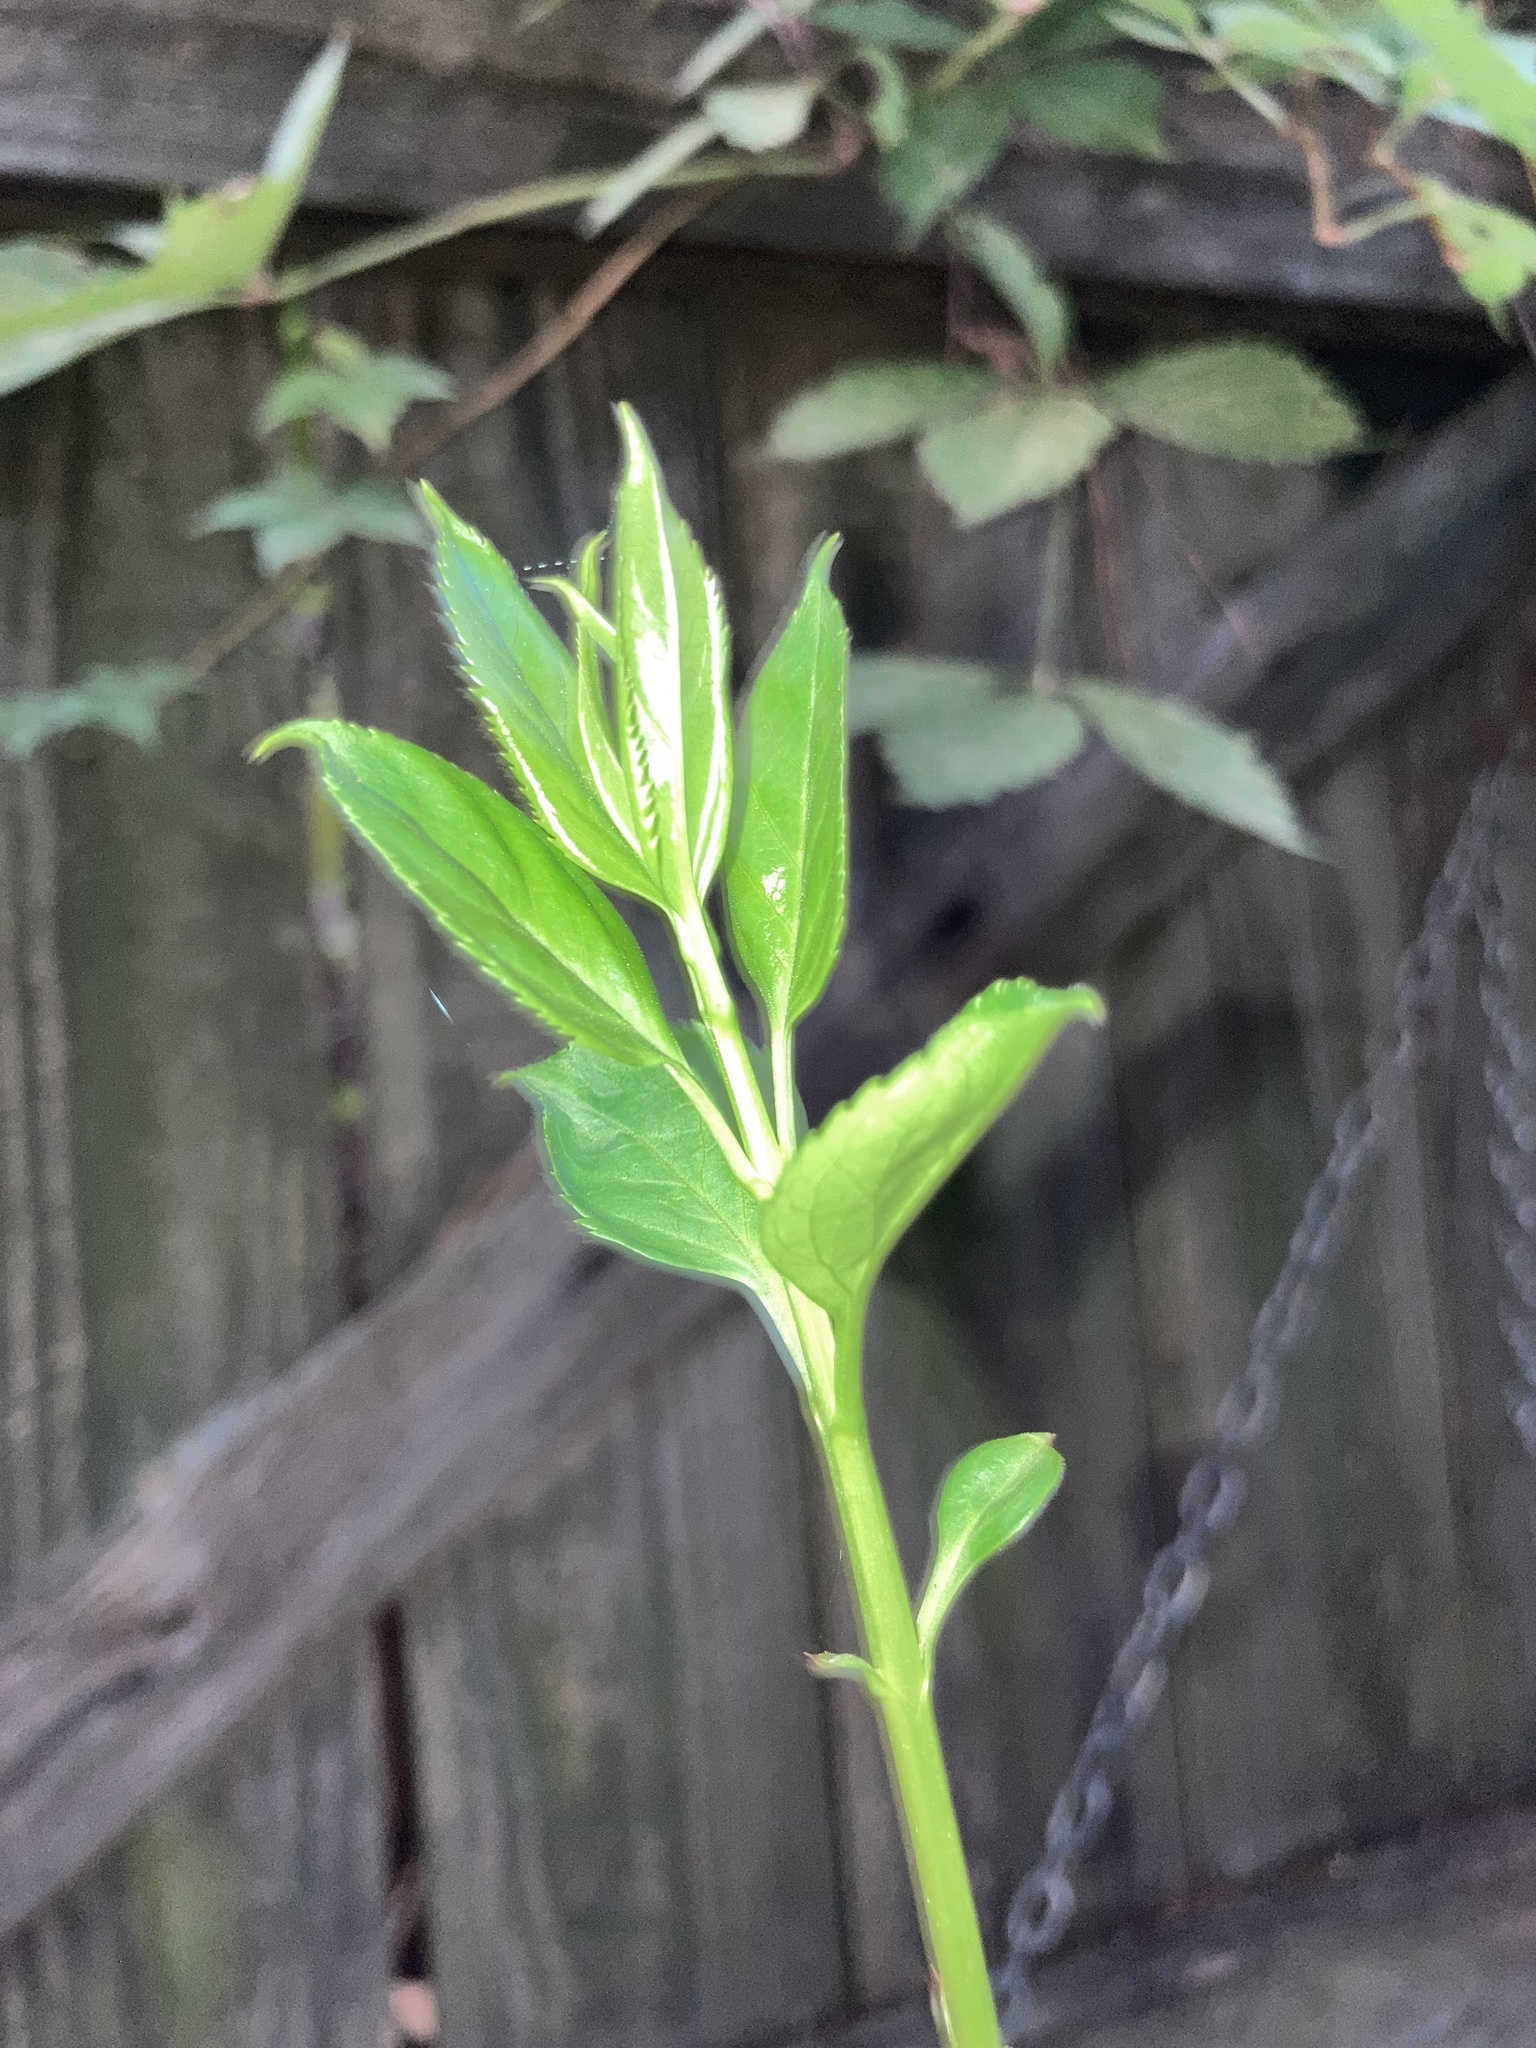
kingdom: Plantae
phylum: Tracheophyta
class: Magnoliopsida
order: Lamiales
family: Oleaceae
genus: Forsythia
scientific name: Forsythia suspensa
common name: Weeping forsythia
